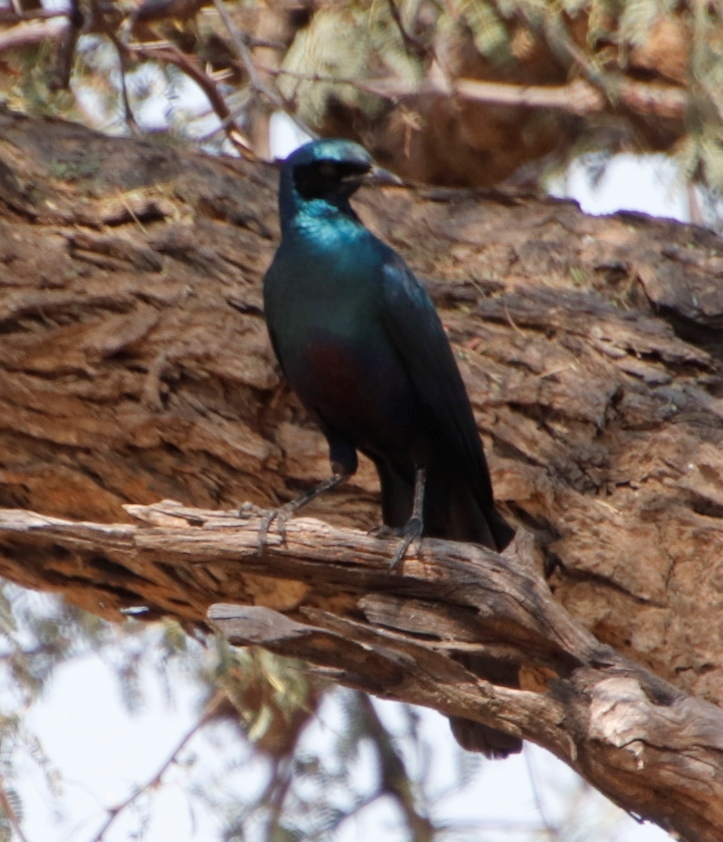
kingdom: Animalia
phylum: Chordata
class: Aves
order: Passeriformes
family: Sturnidae
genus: Lamprotornis
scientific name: Lamprotornis mevesii
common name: Meves's starling
